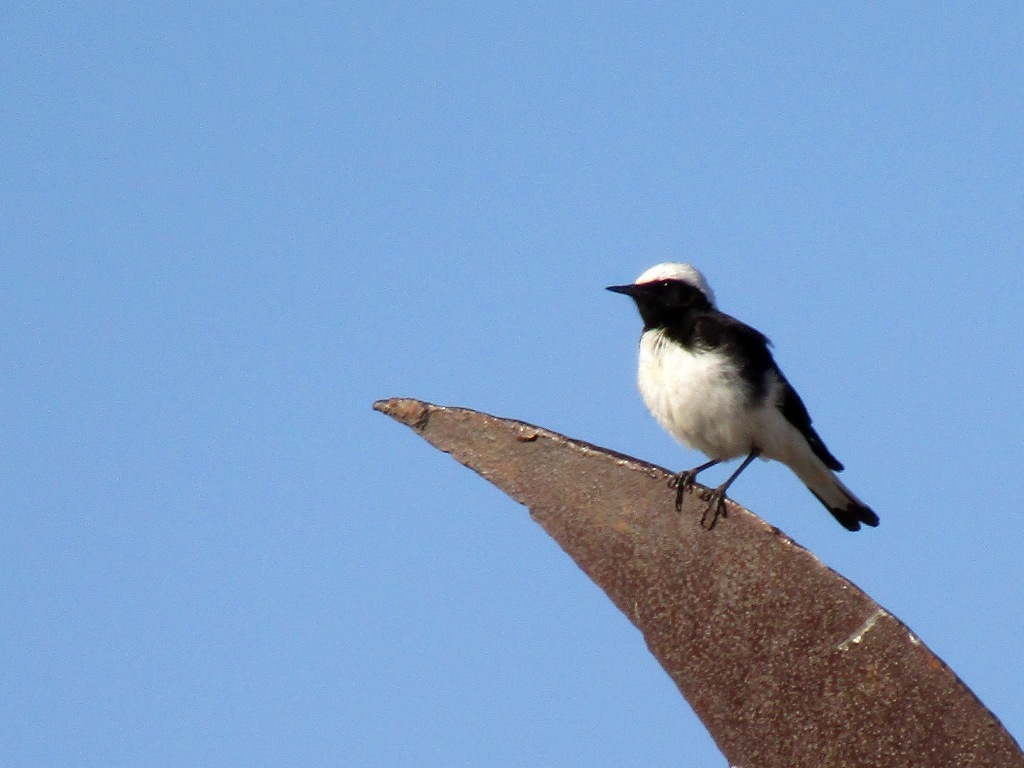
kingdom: Animalia
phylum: Chordata
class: Aves
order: Passeriformes
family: Muscicapidae
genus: Oenanthe
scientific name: Oenanthe pleschanka
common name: Pied wheatear
